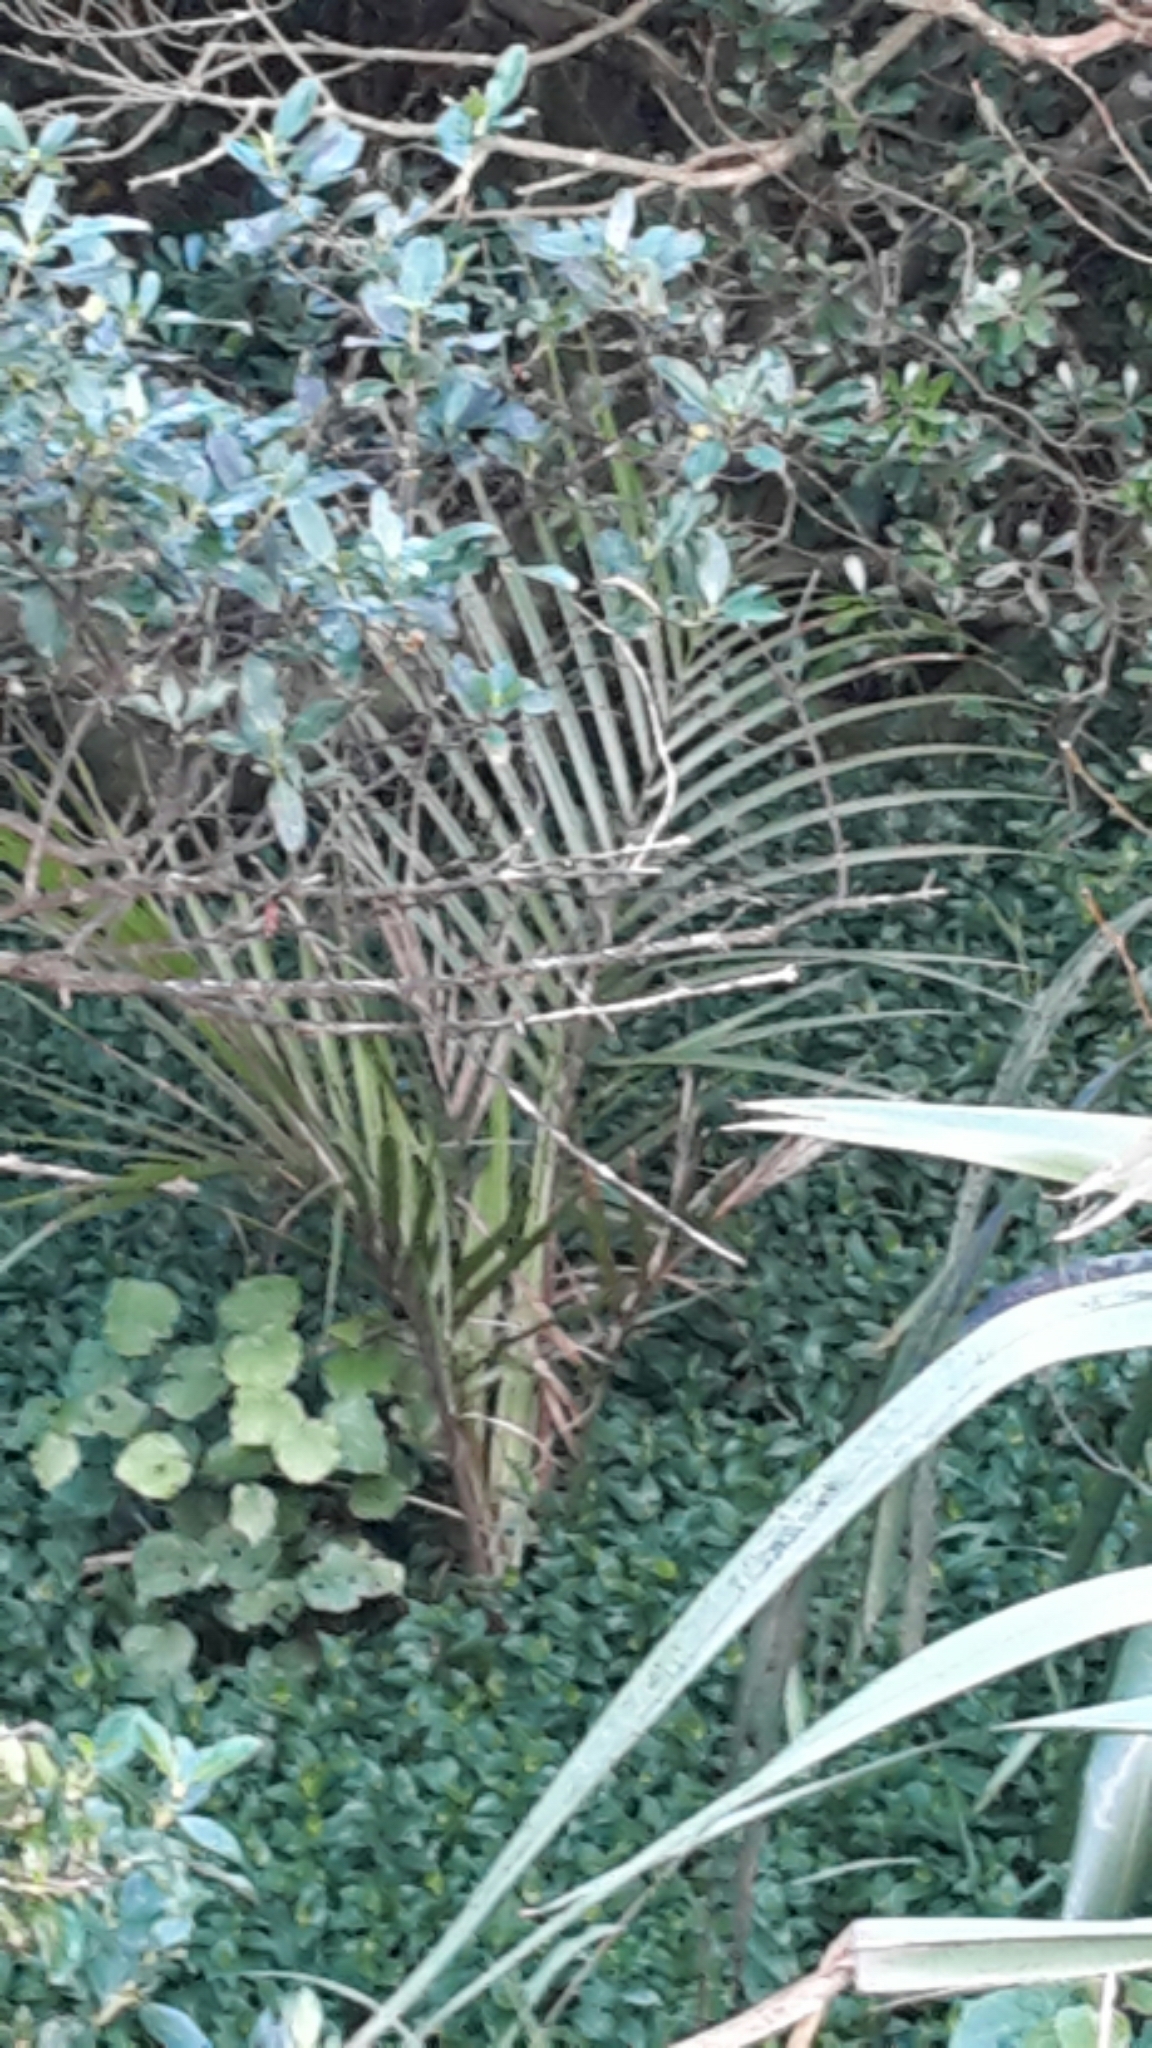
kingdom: Plantae
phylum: Tracheophyta
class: Liliopsida
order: Arecales
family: Arecaceae
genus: Rhopalostylis
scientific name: Rhopalostylis sapida
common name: Feather-duster palm
